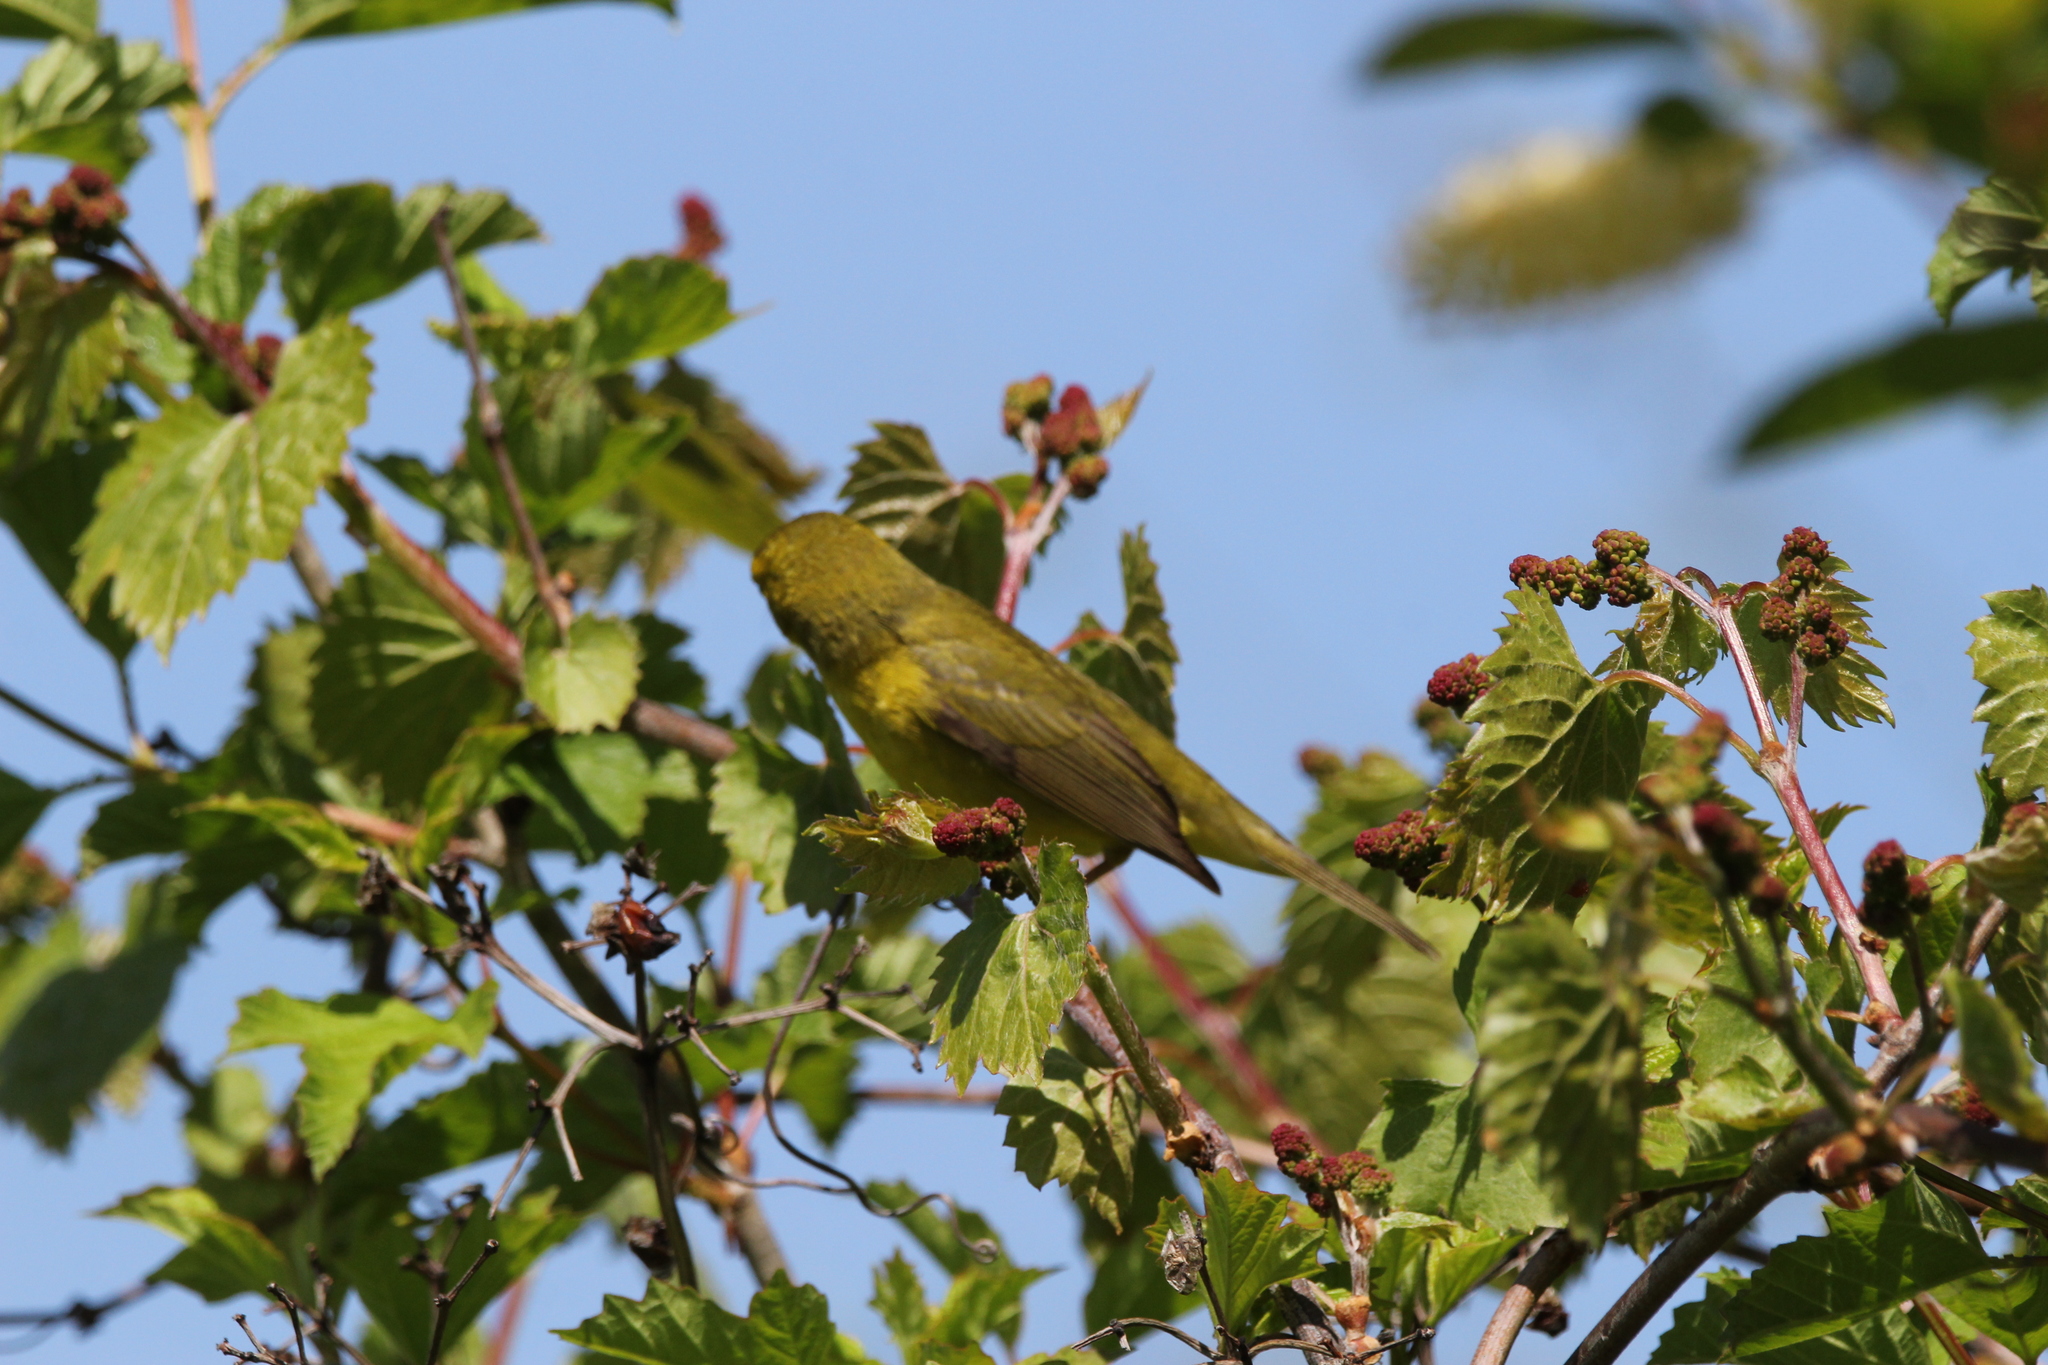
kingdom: Animalia
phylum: Chordata
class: Aves
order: Passeriformes
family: Parulidae
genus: Setophaga
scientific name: Setophaga petechia
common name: Yellow warbler
